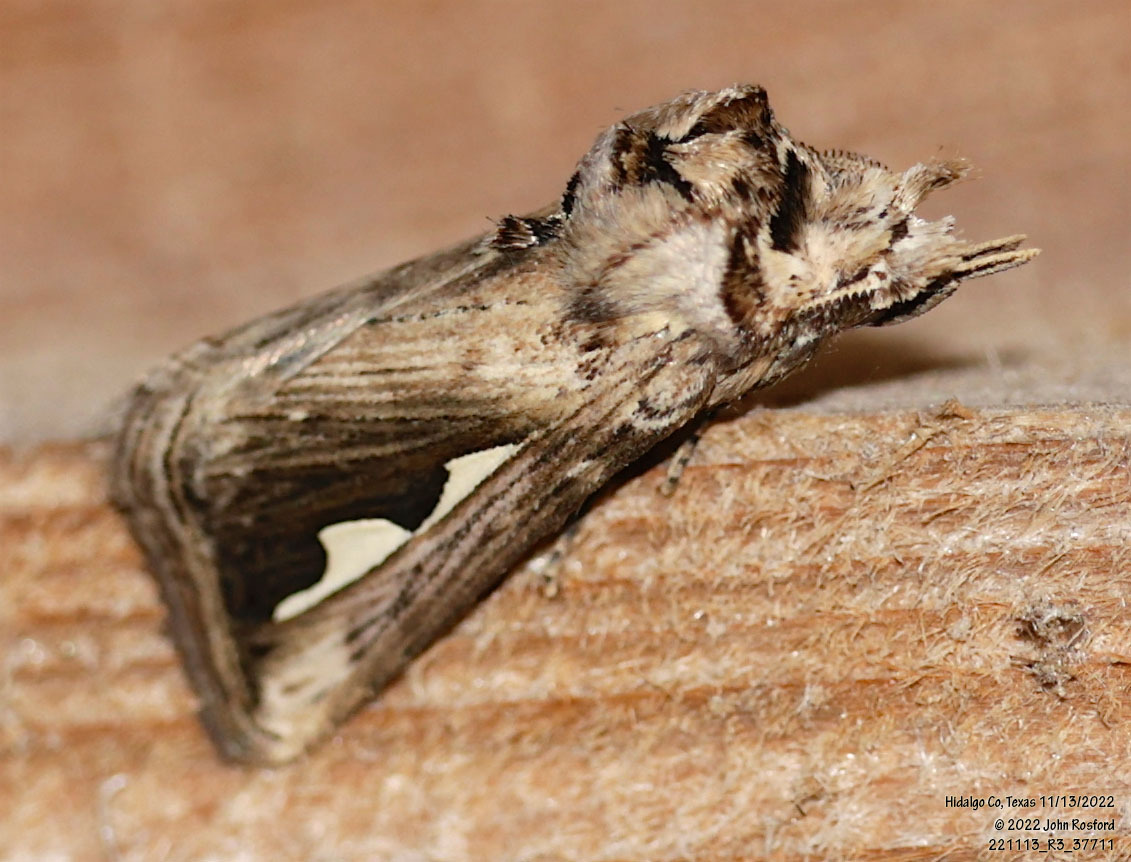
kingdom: Animalia
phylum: Arthropoda
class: Insecta
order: Lepidoptera
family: Notodontidae
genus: Didugua
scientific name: Didugua argentilinea
